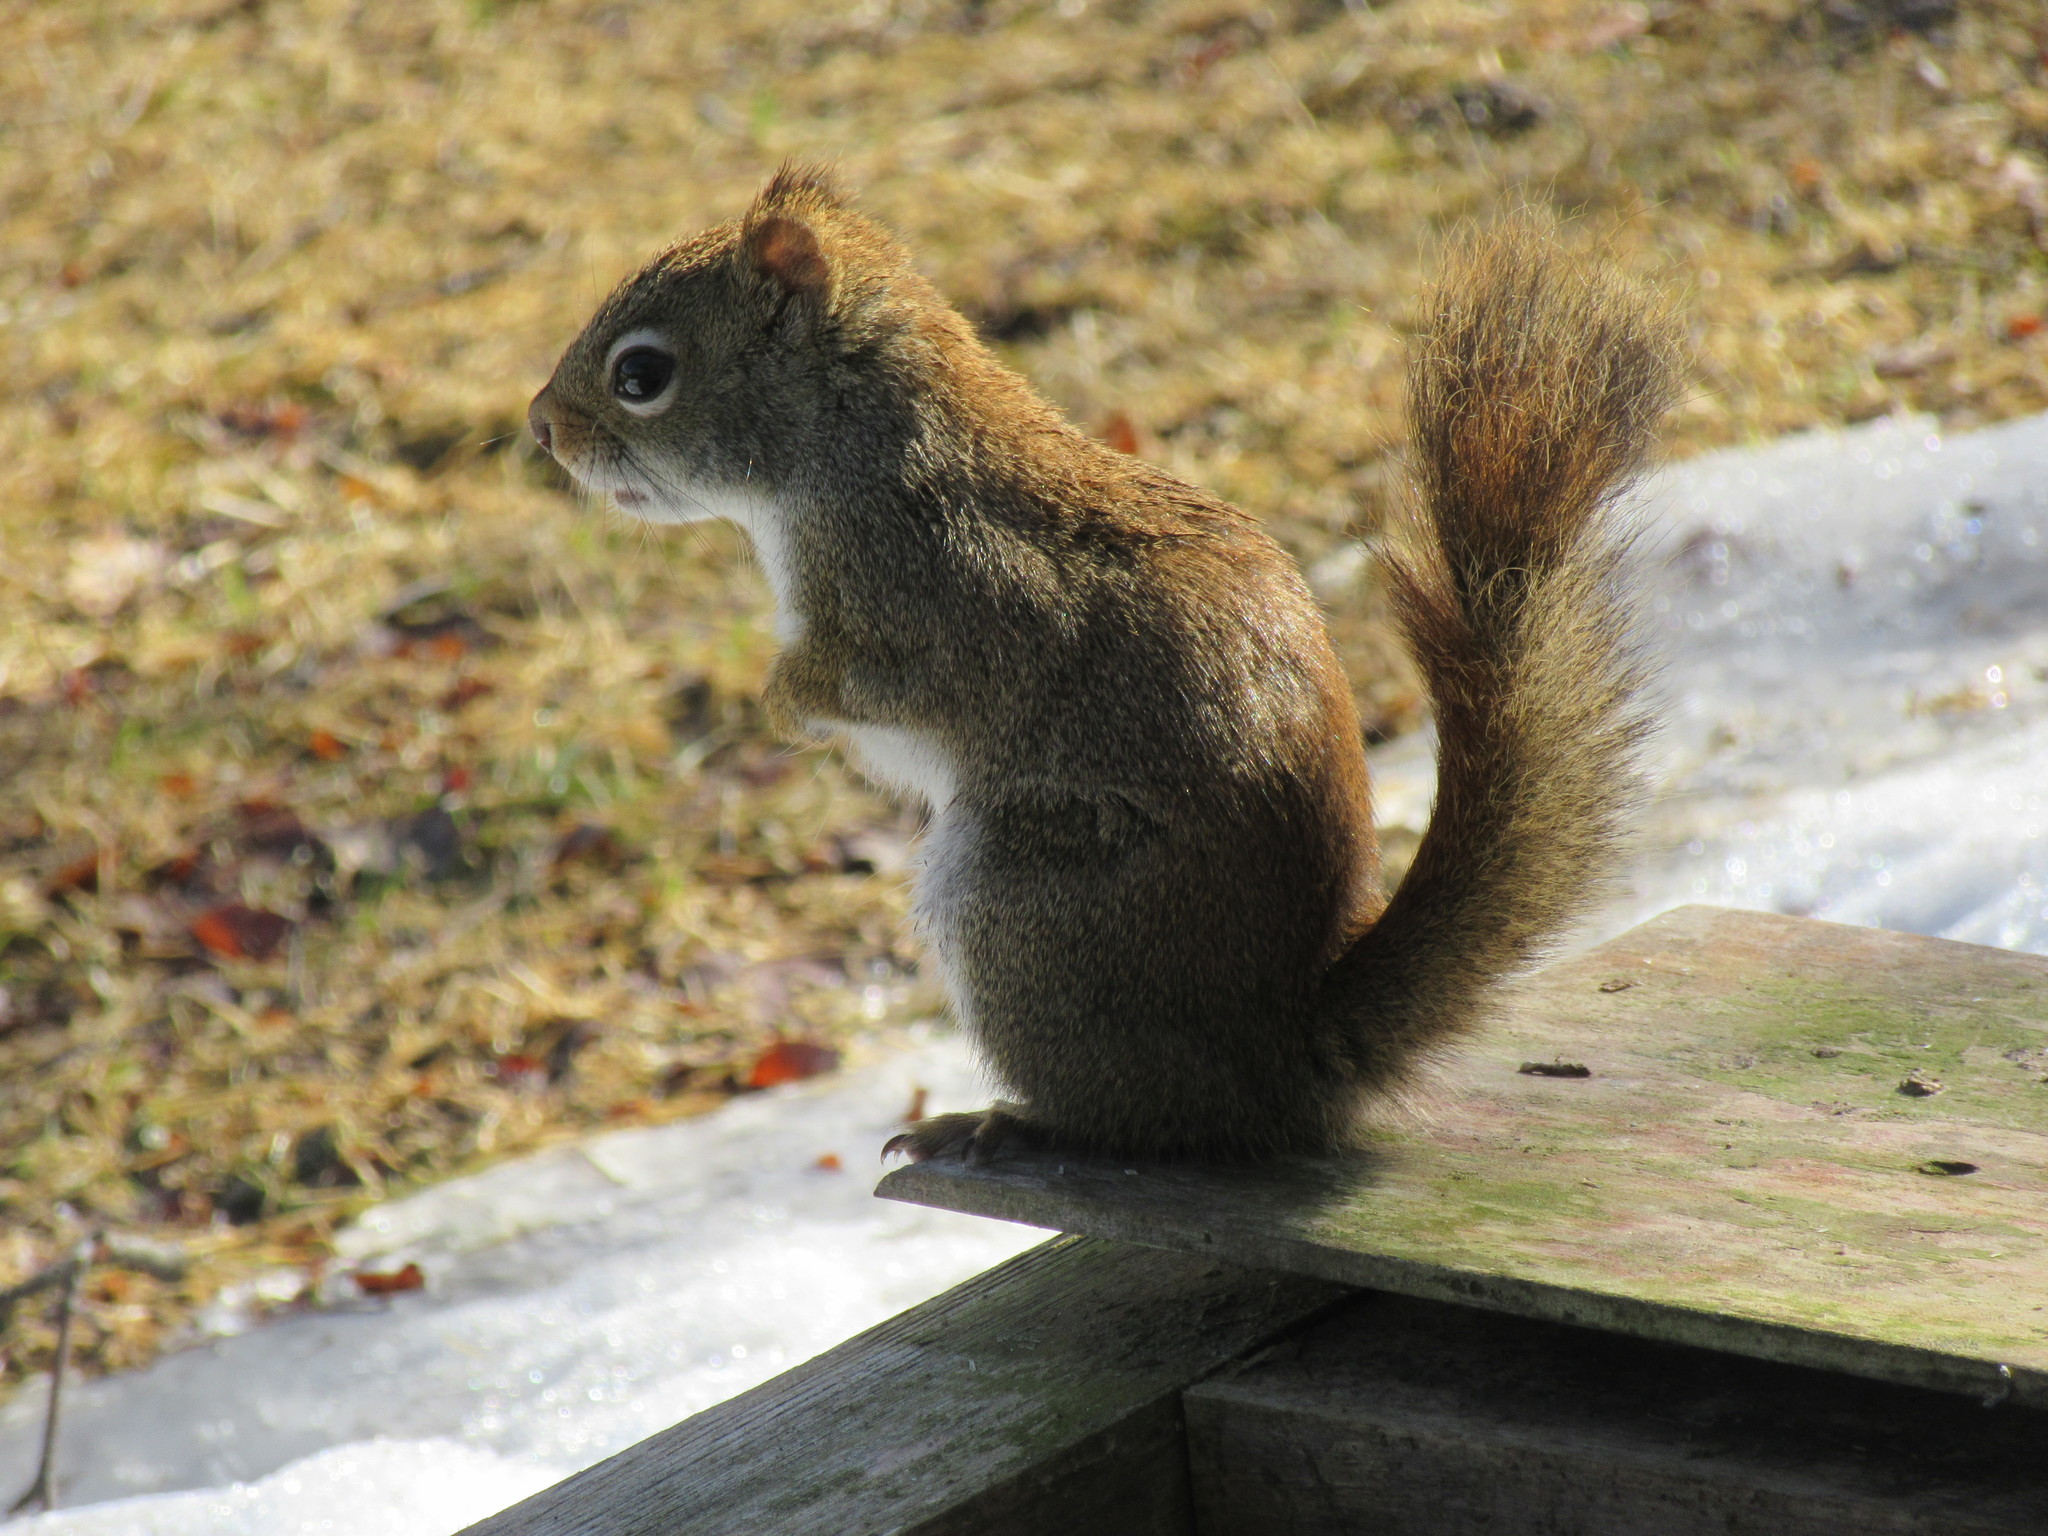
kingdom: Animalia
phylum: Chordata
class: Mammalia
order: Rodentia
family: Sciuridae
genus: Tamiasciurus
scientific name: Tamiasciurus hudsonicus
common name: Red squirrel
